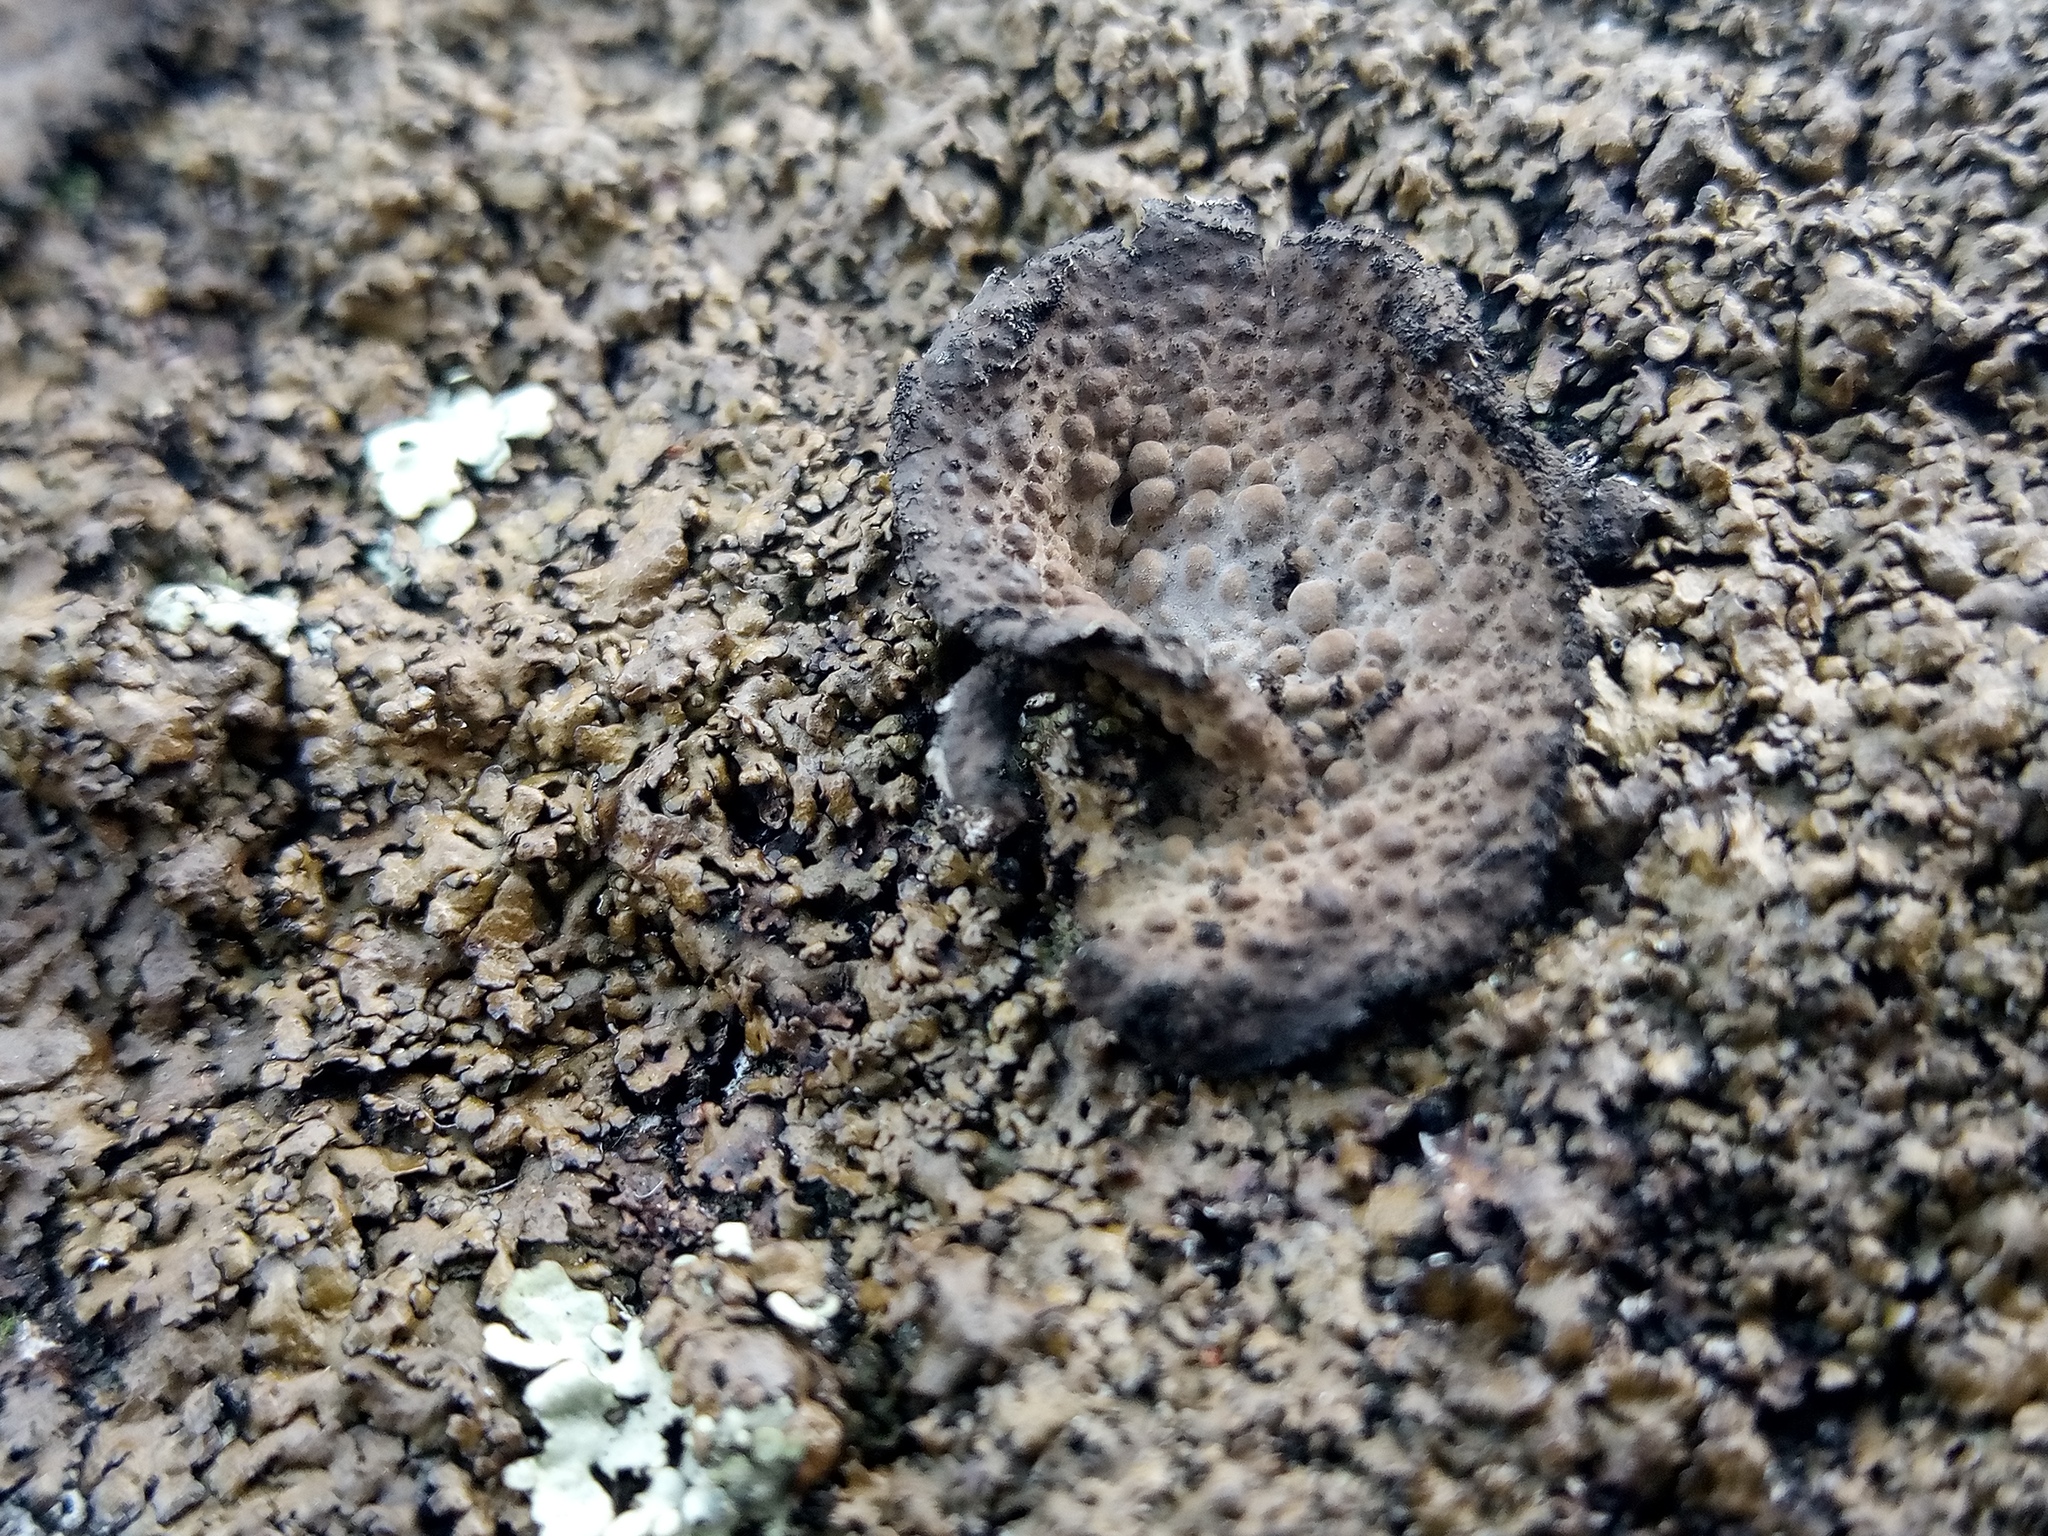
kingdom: Fungi
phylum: Ascomycota
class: Lecanoromycetes
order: Umbilicariales
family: Umbilicariaceae
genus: Lasallia
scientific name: Lasallia pustulata
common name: Blistered toadskin lichen
